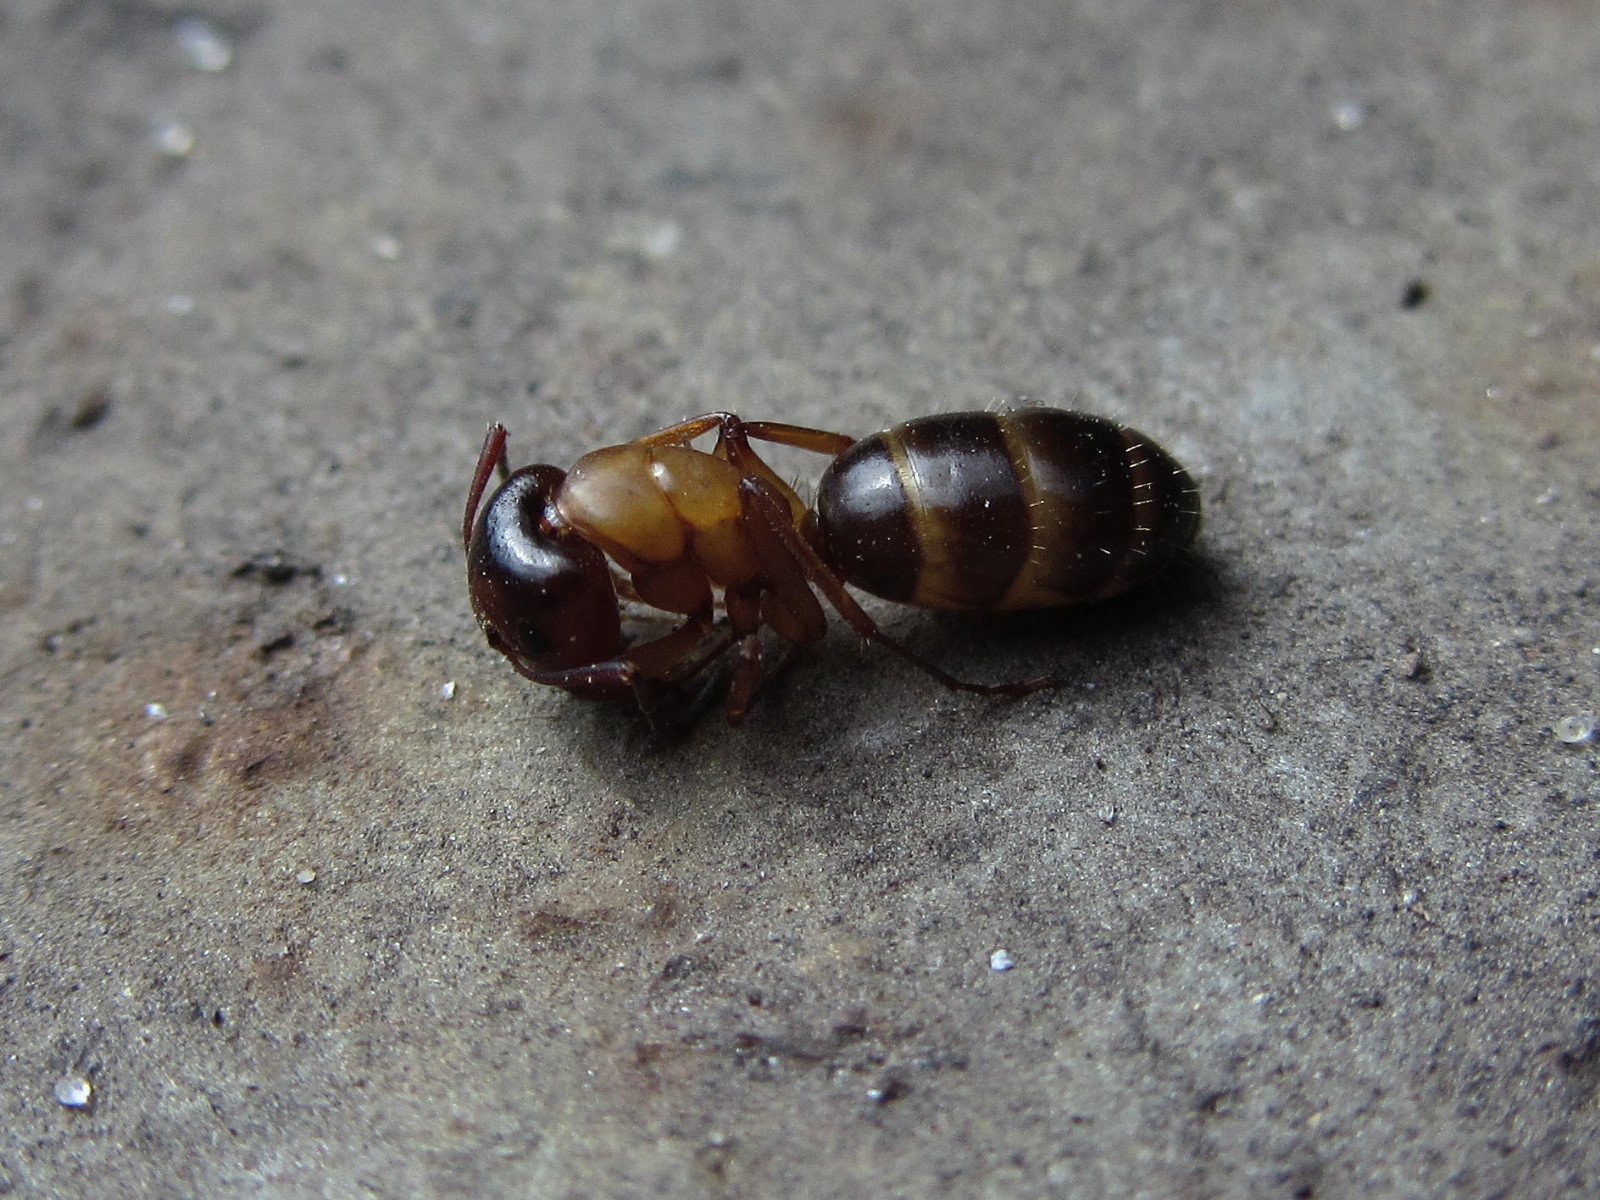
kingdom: Animalia
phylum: Arthropoda
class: Insecta
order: Hymenoptera
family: Formicidae
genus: Camponotus
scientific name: Camponotus fallax
